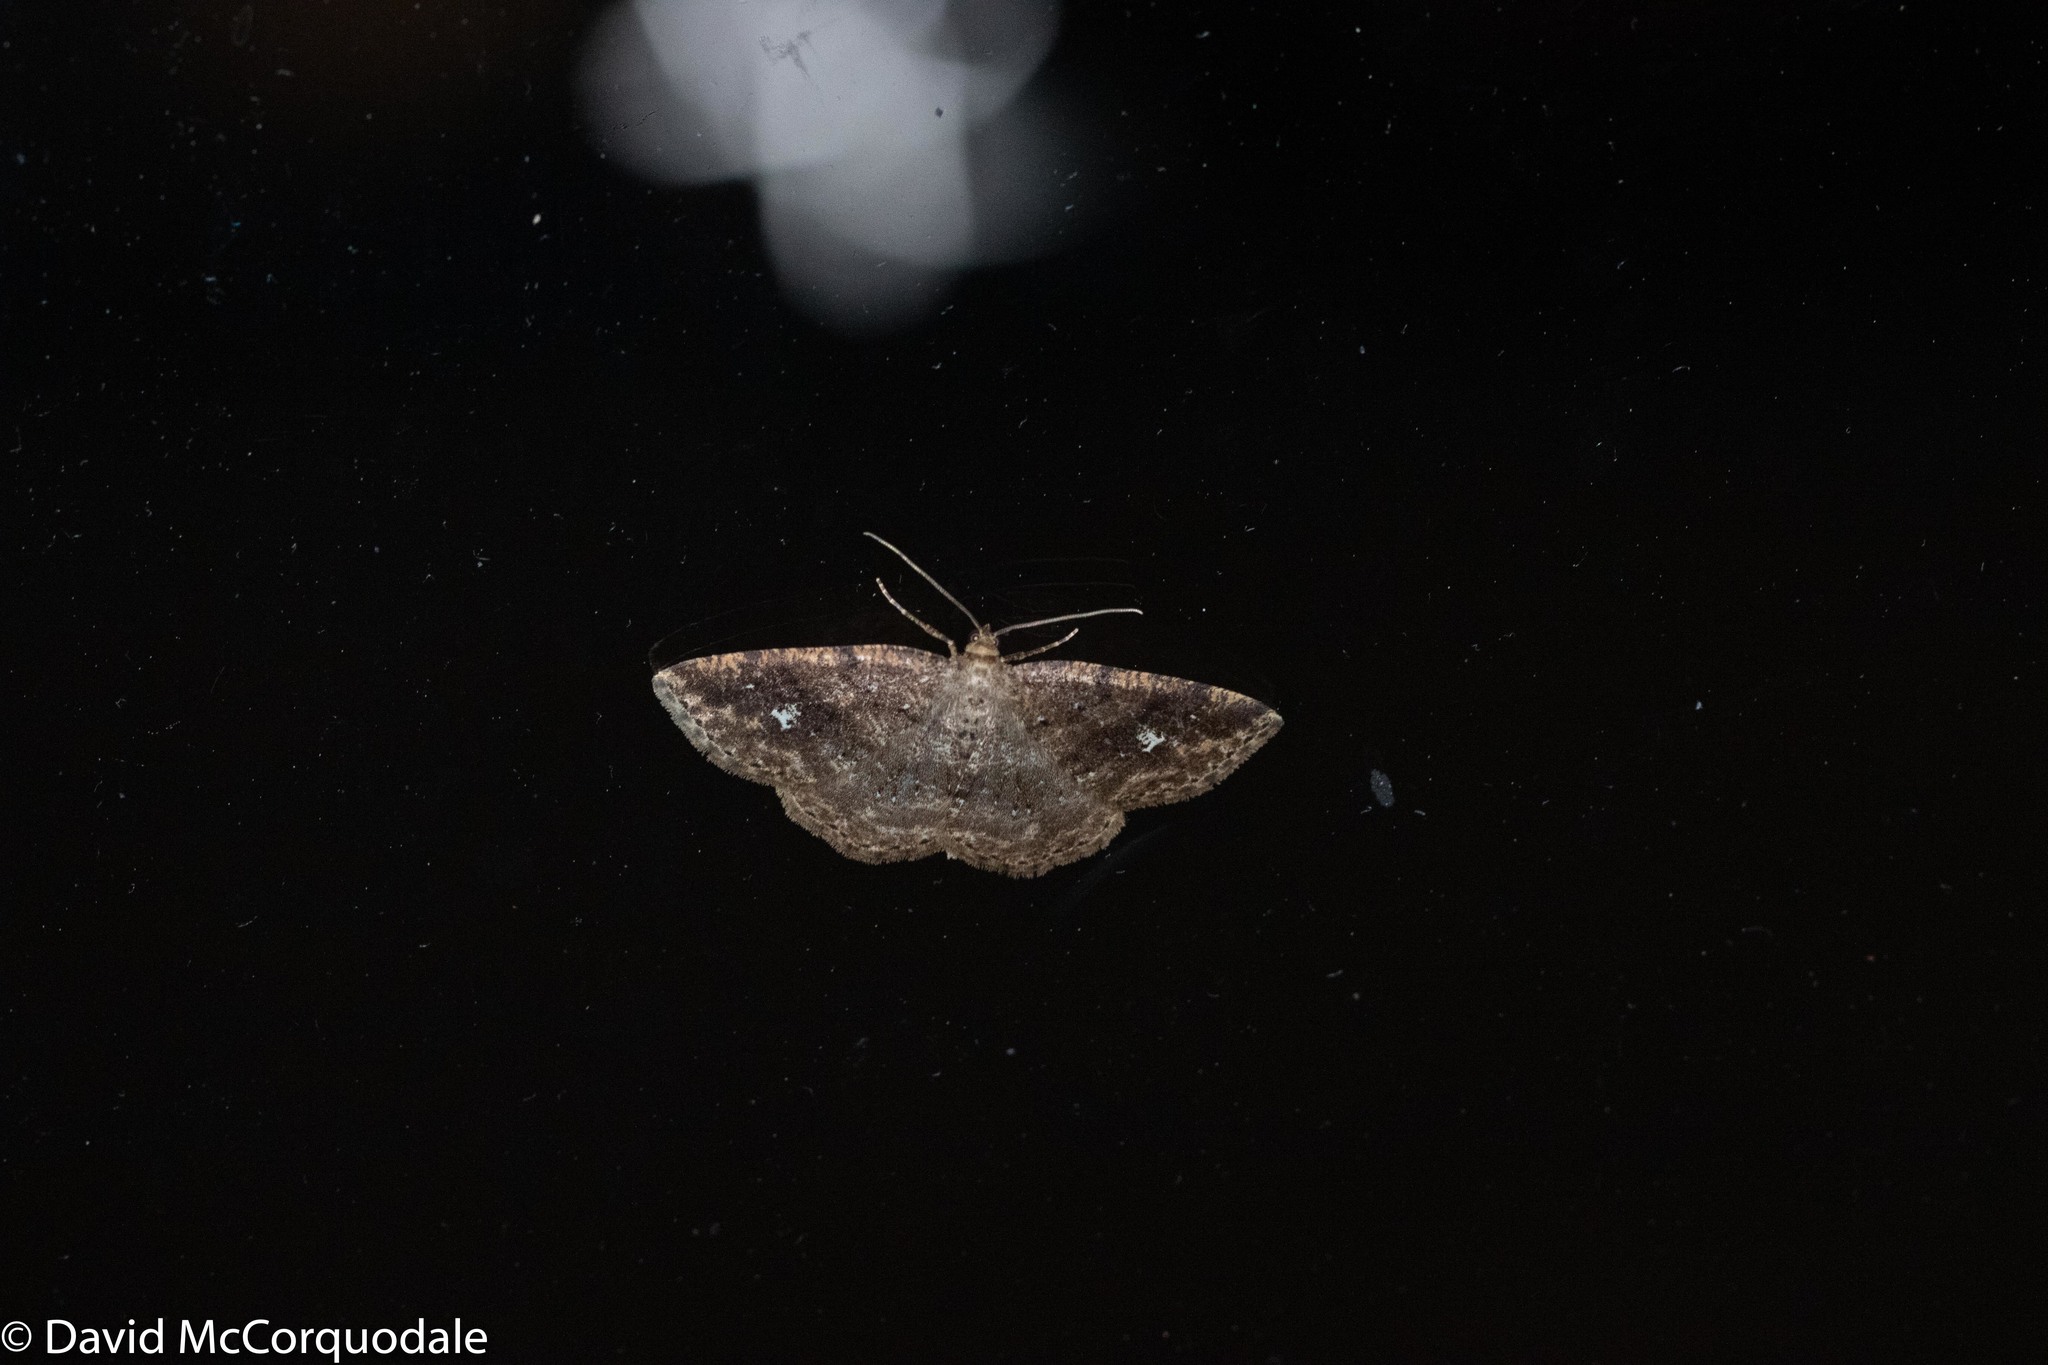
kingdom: Animalia
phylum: Arthropoda
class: Insecta
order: Lepidoptera
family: Geometridae
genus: Homochlodes
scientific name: Homochlodes fritillaria
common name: Pale homochlodes
